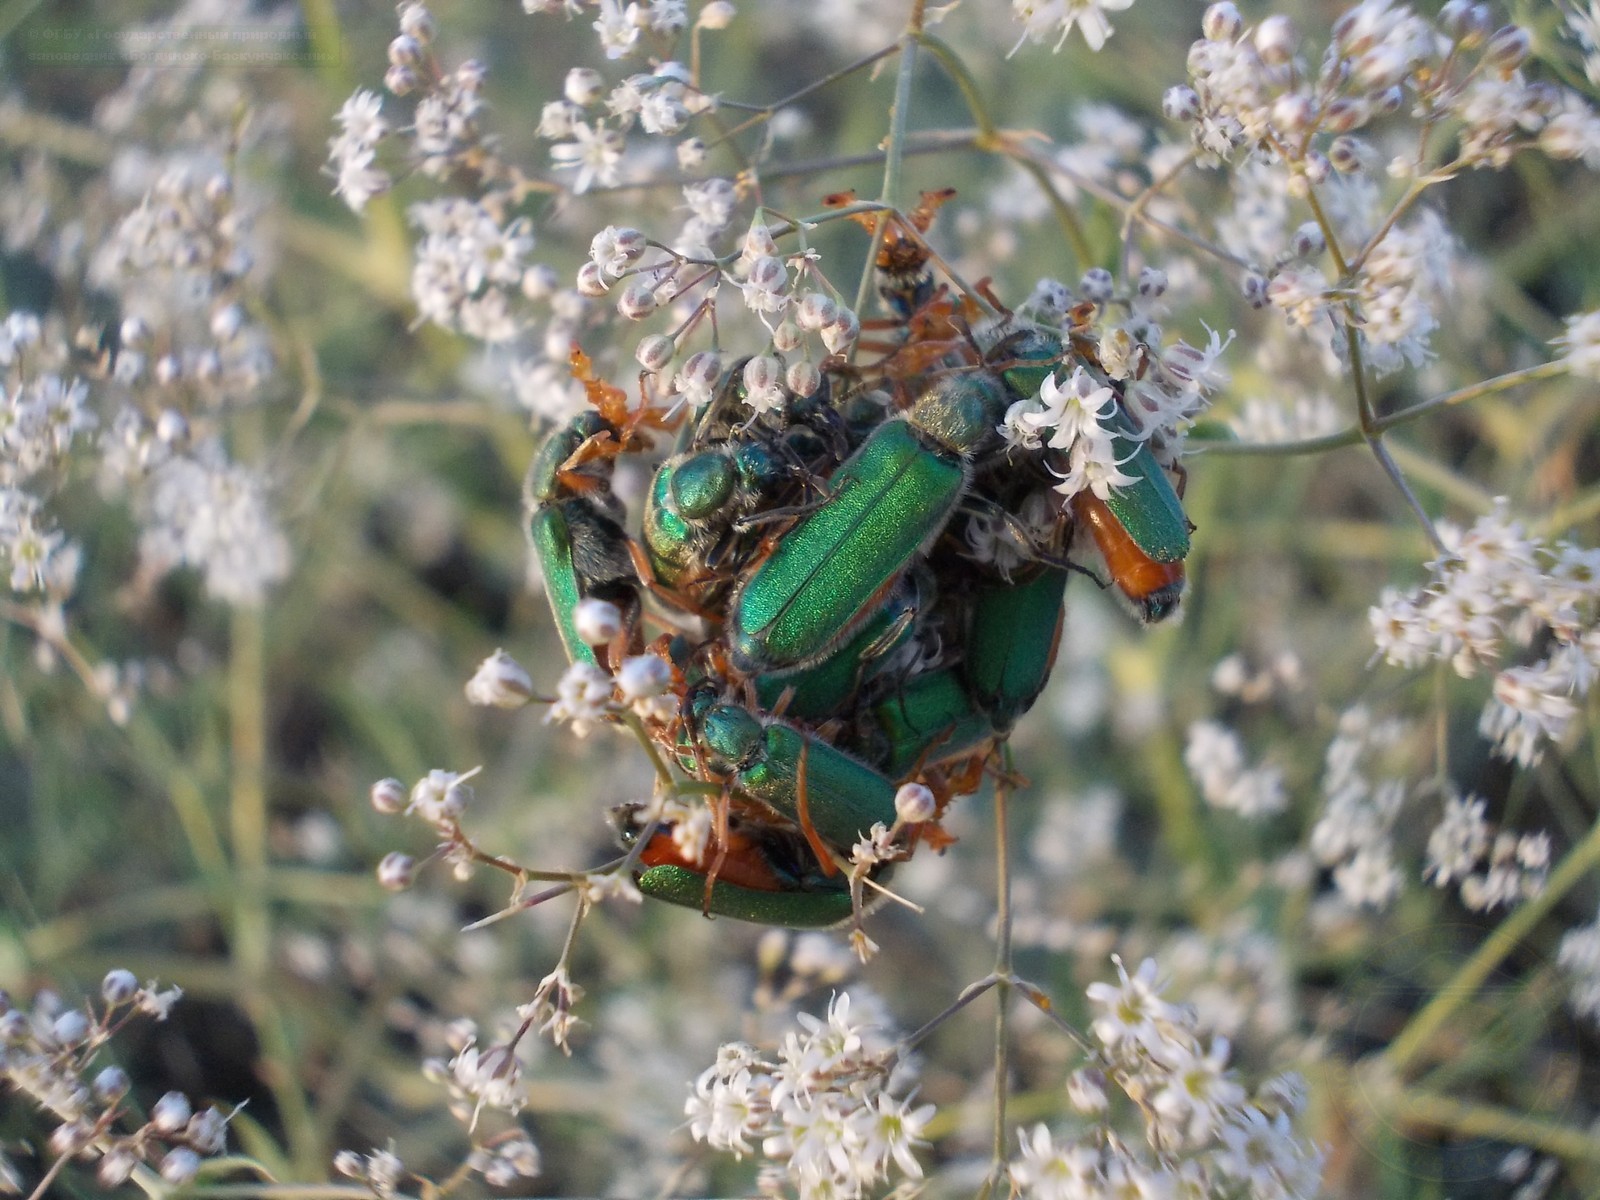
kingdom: Animalia
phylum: Arthropoda
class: Insecta
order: Coleoptera
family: Meloidae
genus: Cerocoma
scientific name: Cerocoma schreberi
